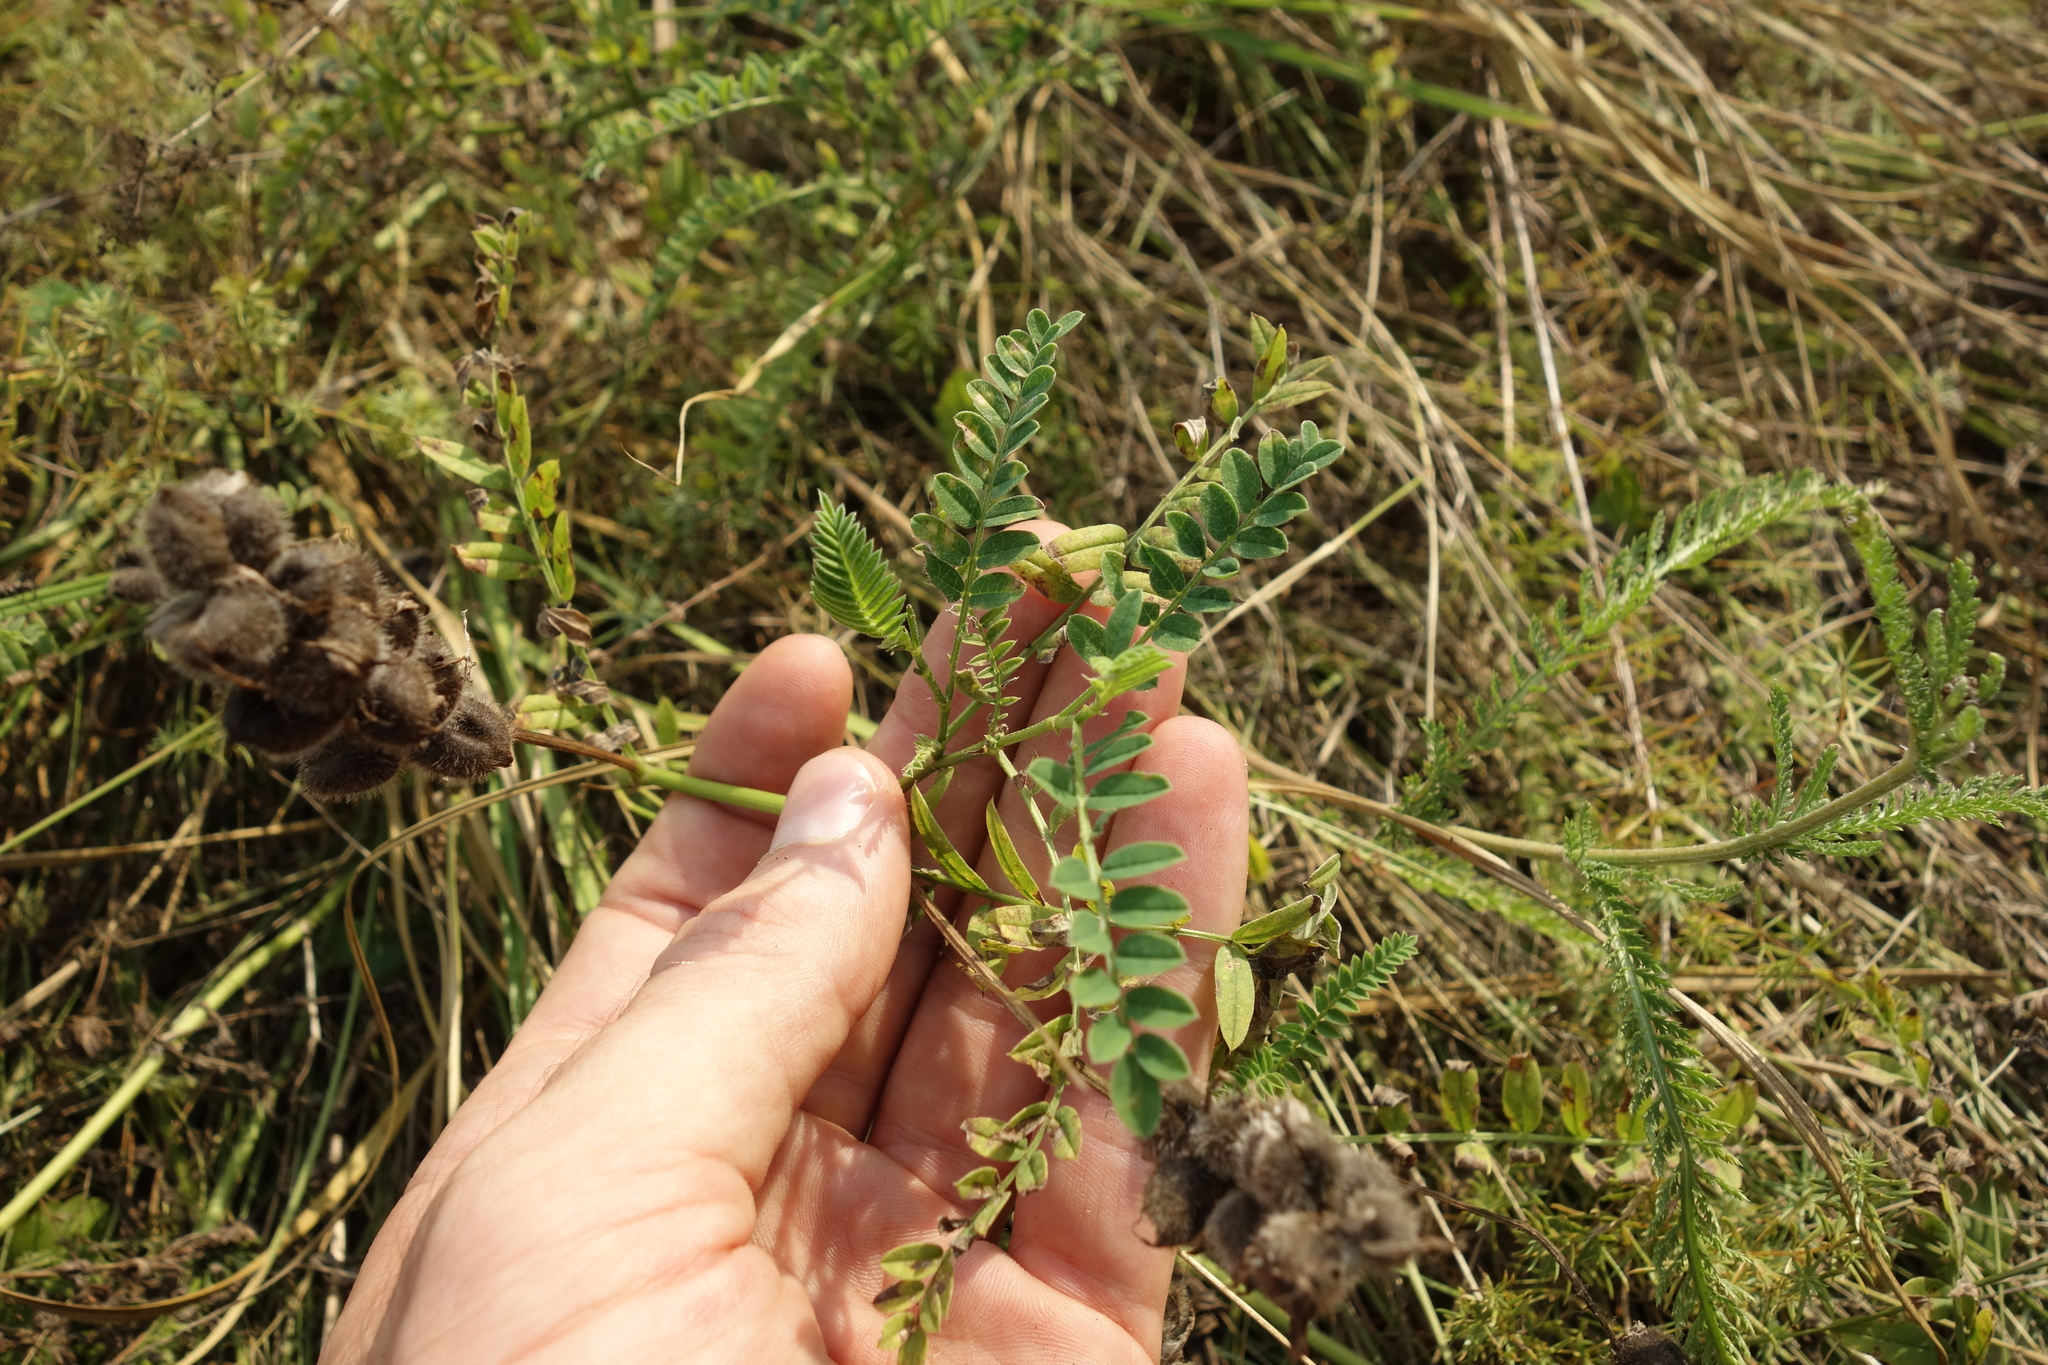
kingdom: Plantae
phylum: Tracheophyta
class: Magnoliopsida
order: Fabales
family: Fabaceae
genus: Astragalus
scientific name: Astragalus cicer
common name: Chick-pea milk-vetch
